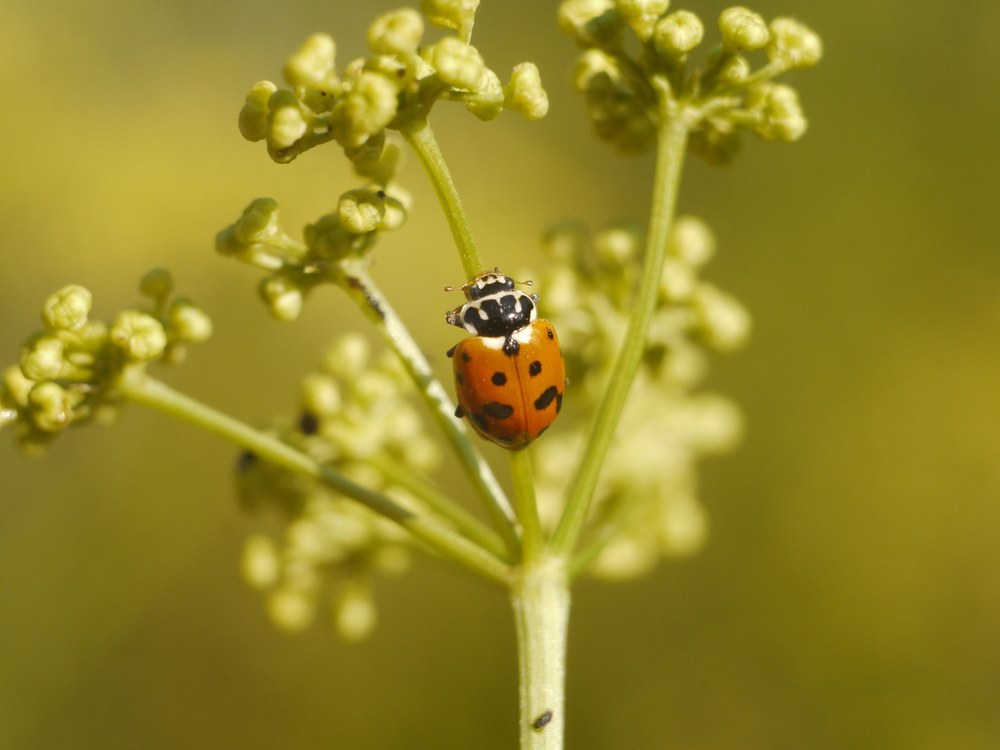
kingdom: Animalia
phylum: Arthropoda
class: Insecta
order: Coleoptera
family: Coccinellidae
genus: Hippodamia
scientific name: Hippodamia variegata
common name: Ladybird beetle
